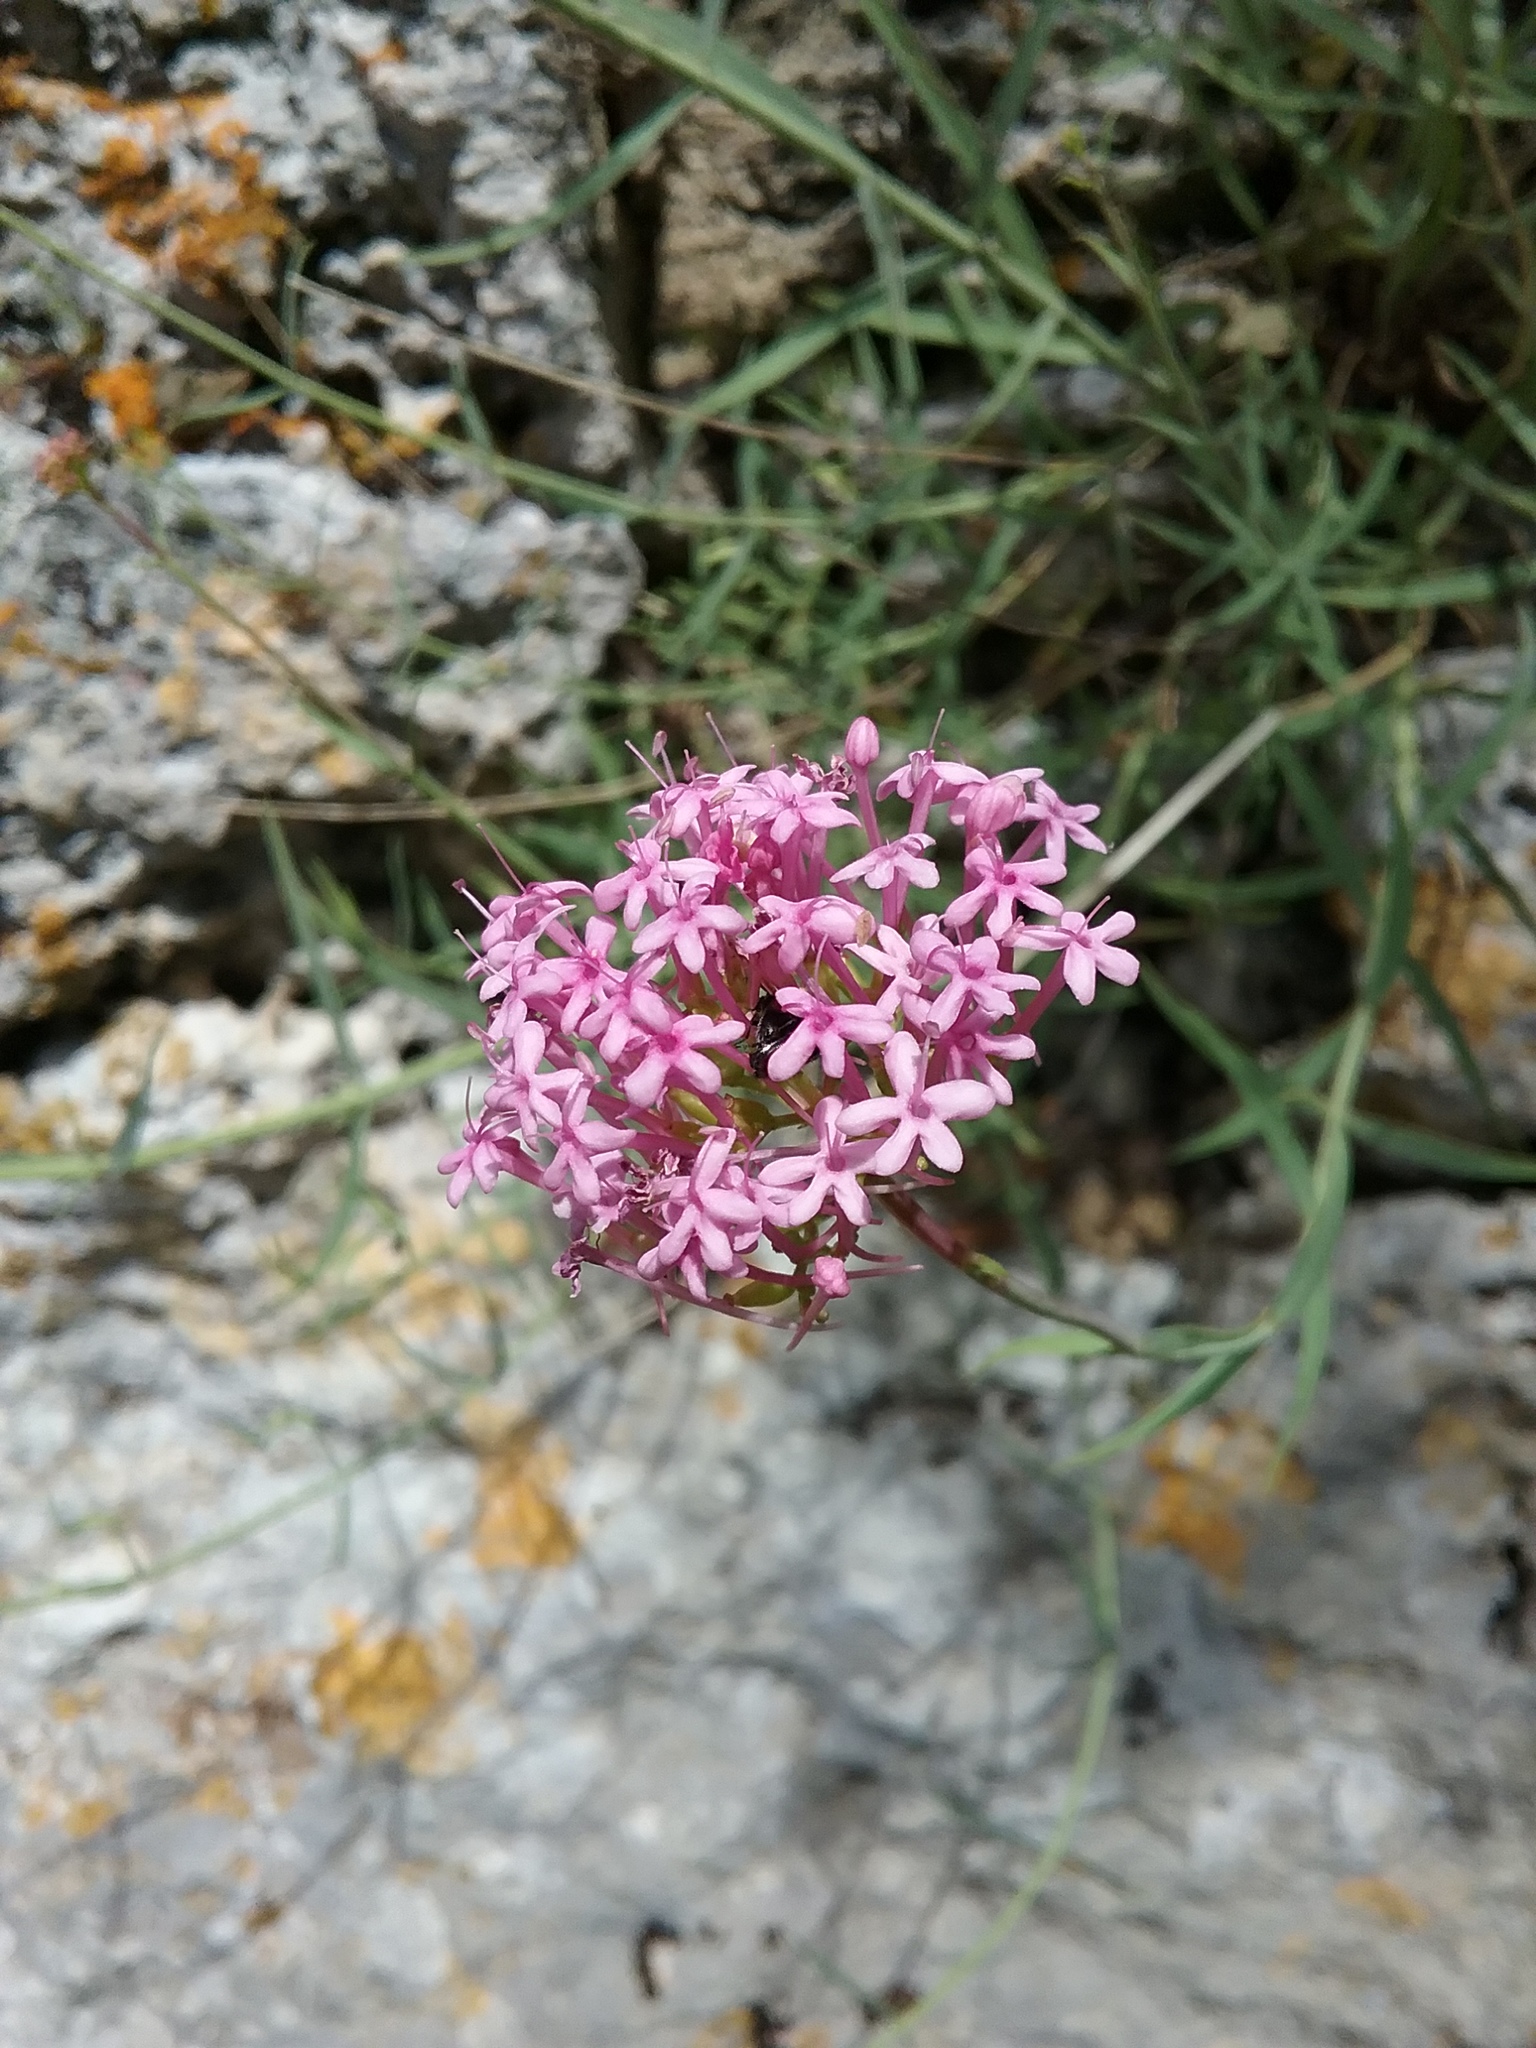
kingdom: Plantae
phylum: Tracheophyta
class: Magnoliopsida
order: Dipsacales
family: Caprifoliaceae
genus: Centranthus
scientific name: Centranthus angustifolius
